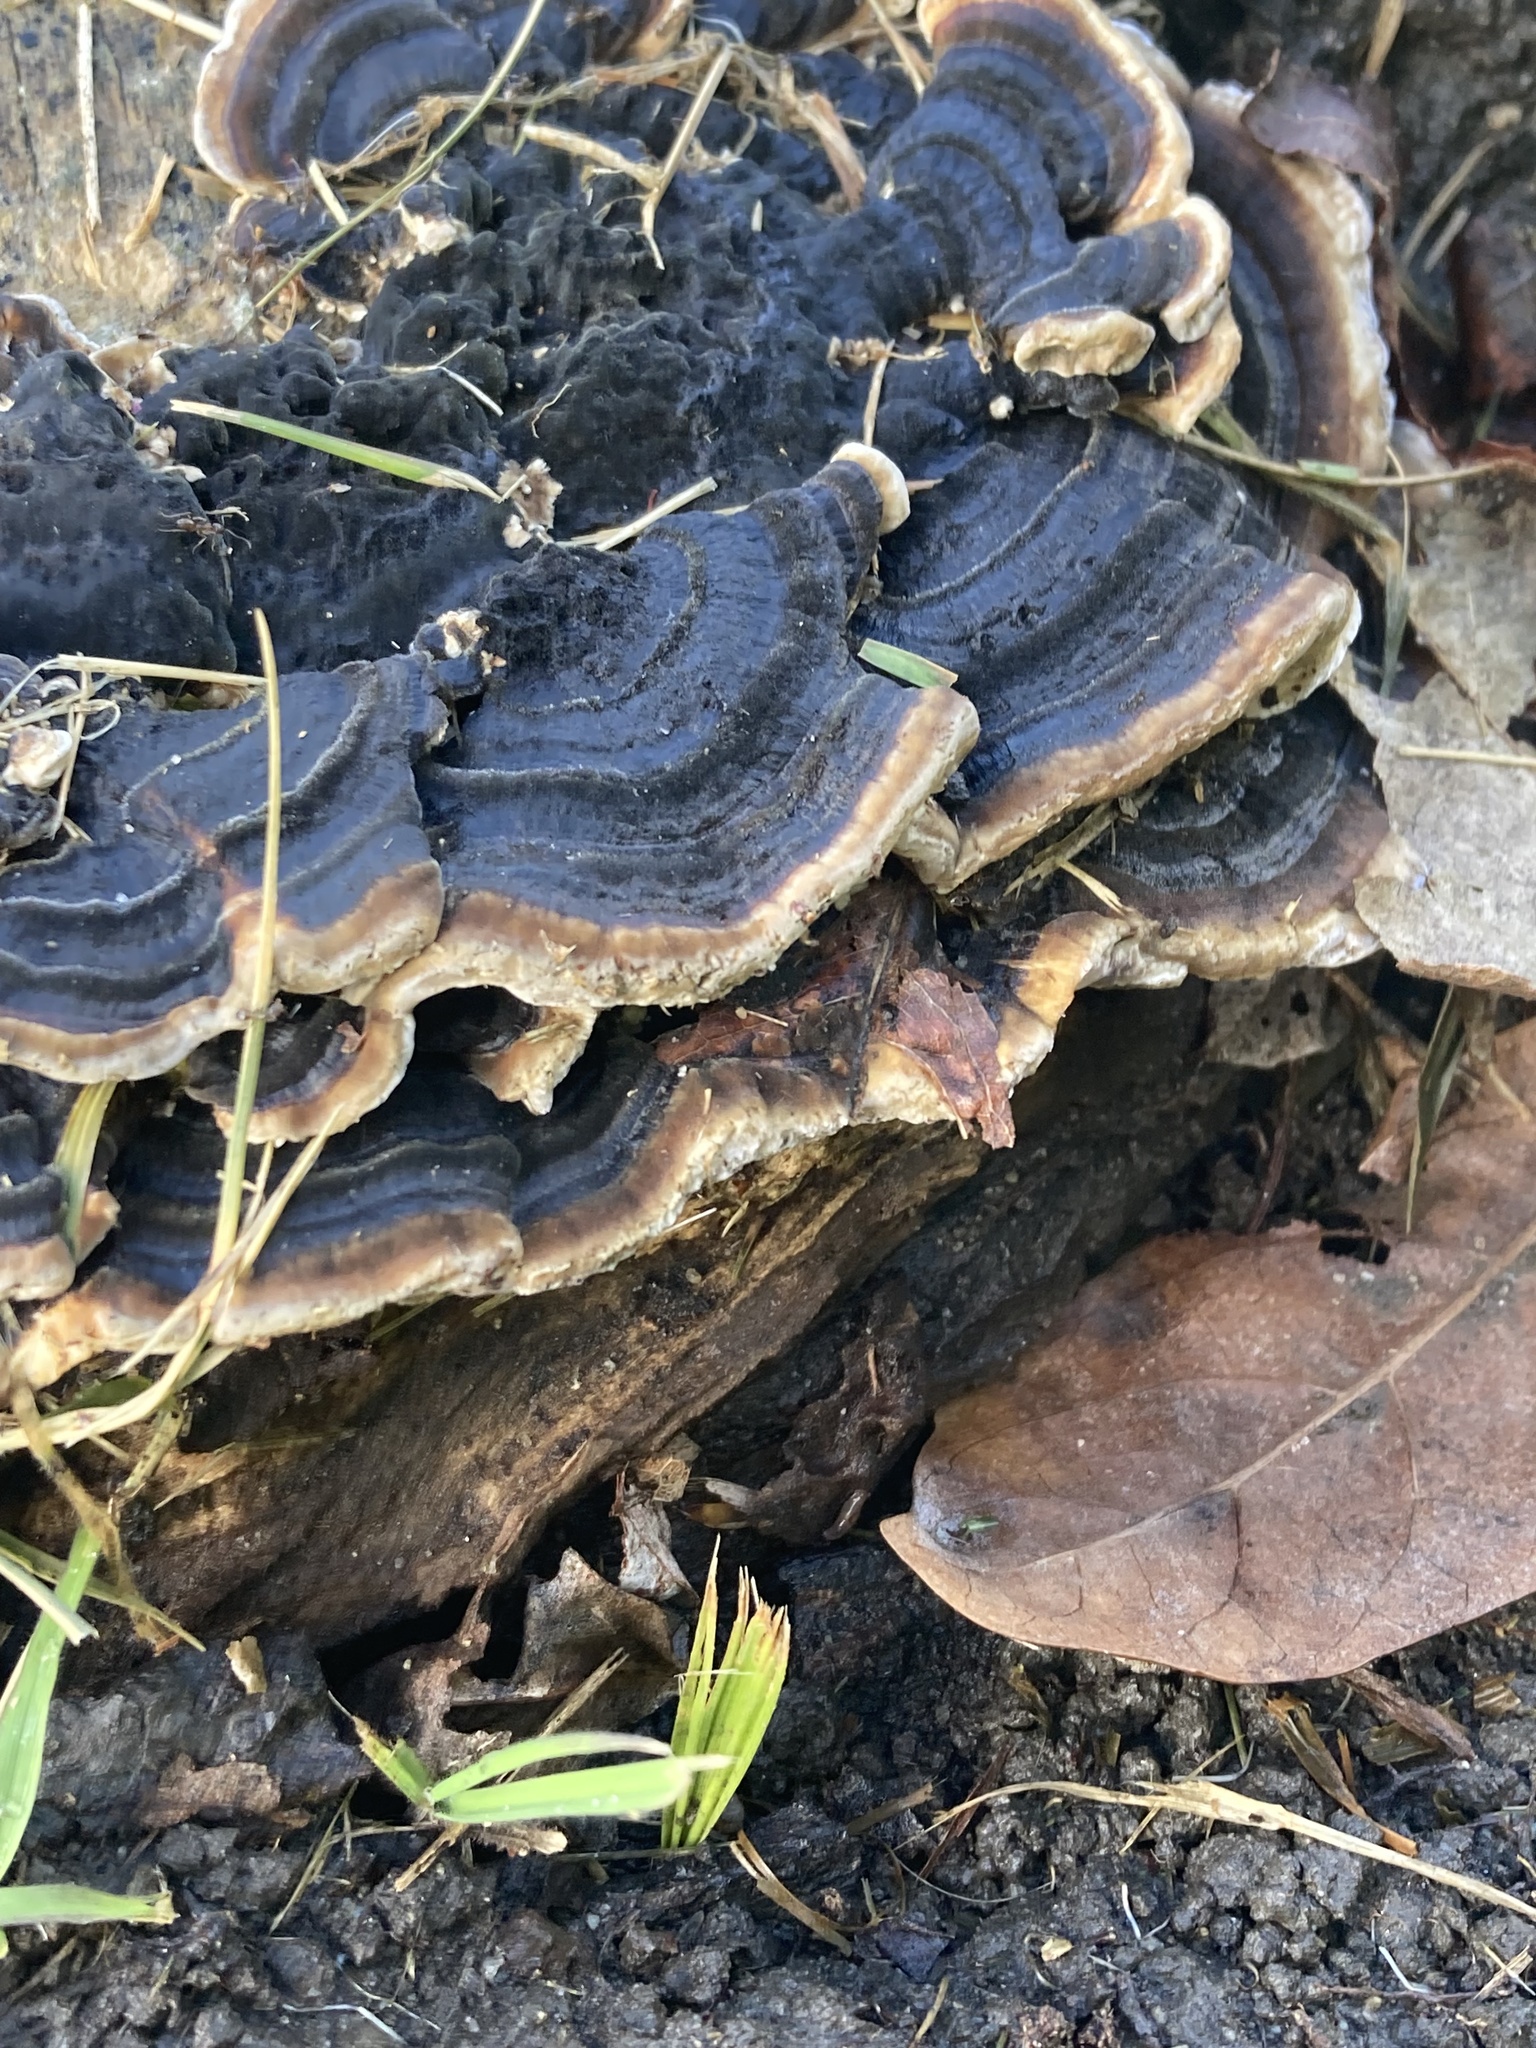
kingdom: Fungi
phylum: Basidiomycota
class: Agaricomycetes
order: Polyporales
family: Polyporaceae
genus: Trametes
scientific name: Trametes versicolor
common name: Turkeytail
